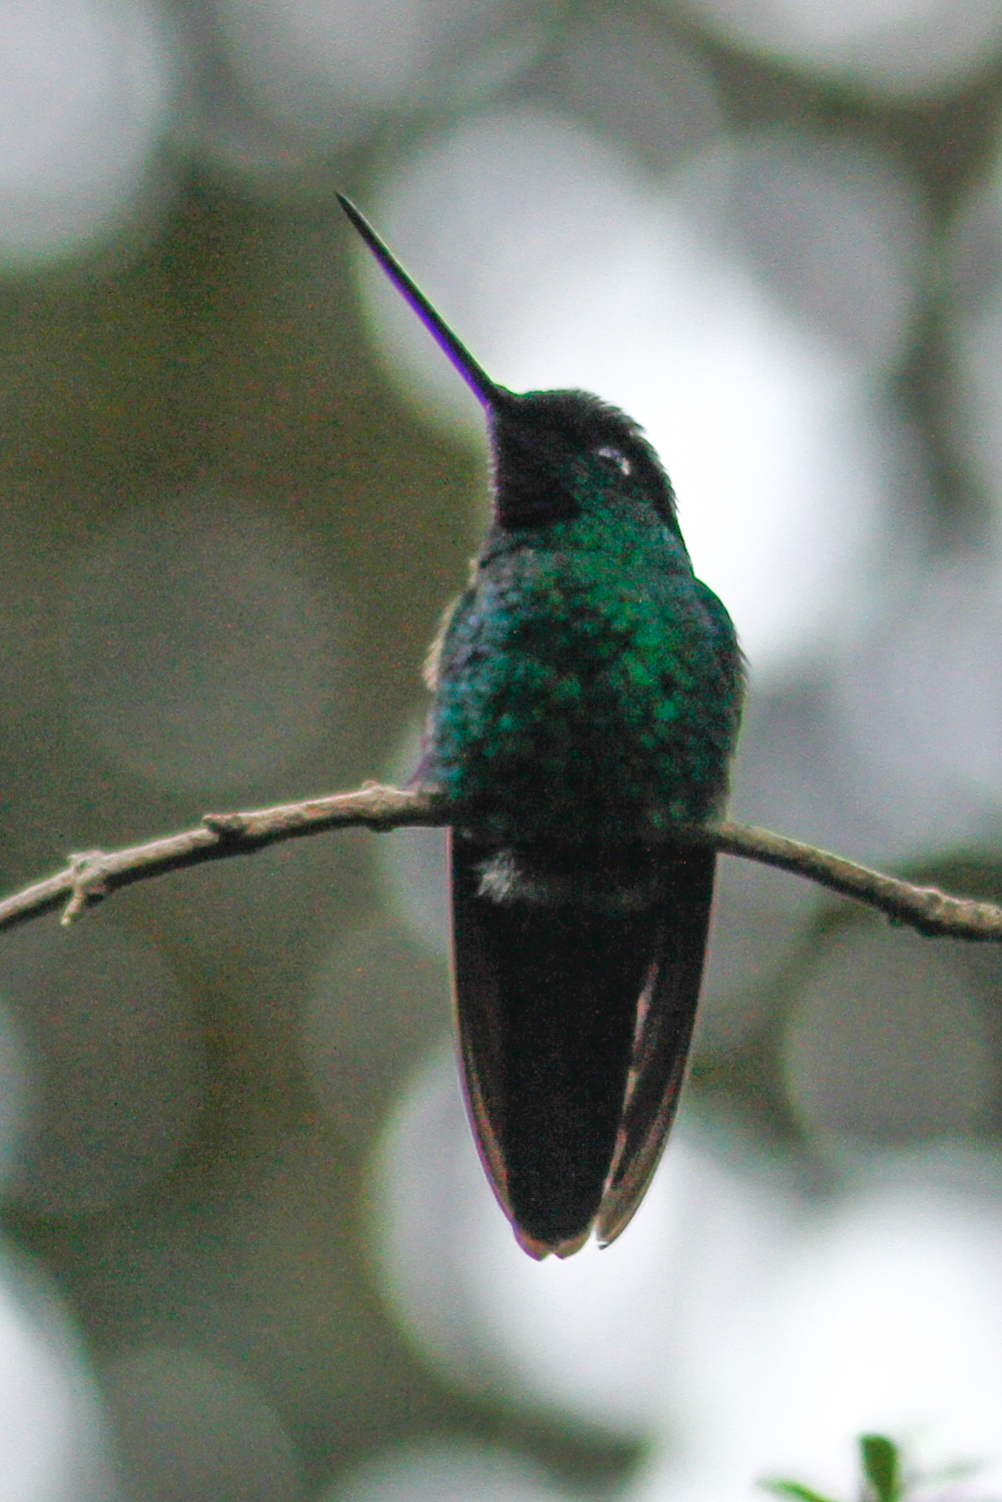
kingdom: Animalia
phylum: Chordata
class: Aves
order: Apodiformes
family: Trochilidae
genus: Coeligena
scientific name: Coeligena lutetiae
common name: Buff-winged starfrontlet
